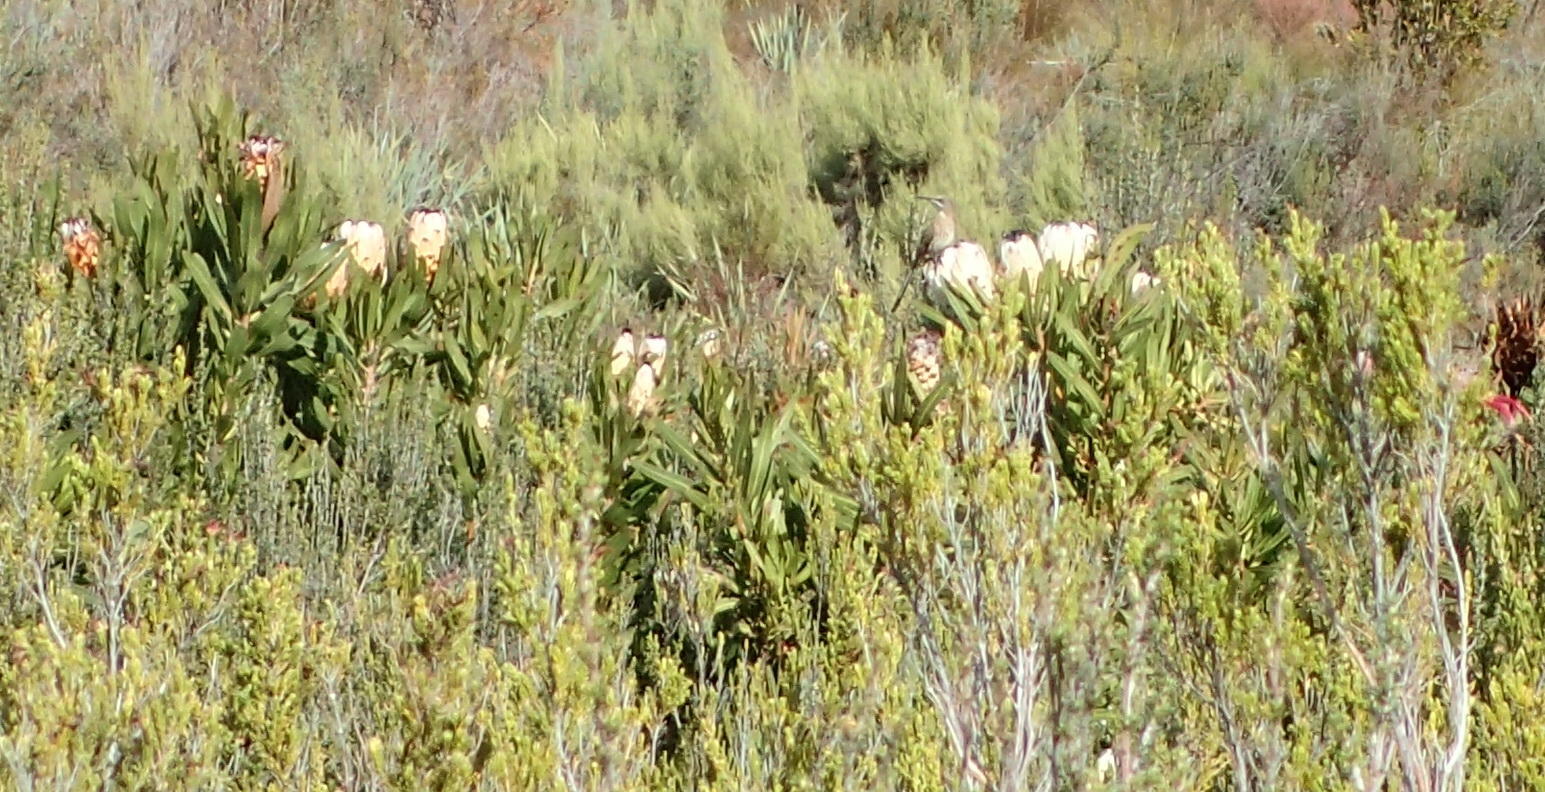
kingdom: Animalia
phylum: Chordata
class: Aves
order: Passeriformes
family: Promeropidae
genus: Promerops
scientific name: Promerops cafer
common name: Cape sugarbird
